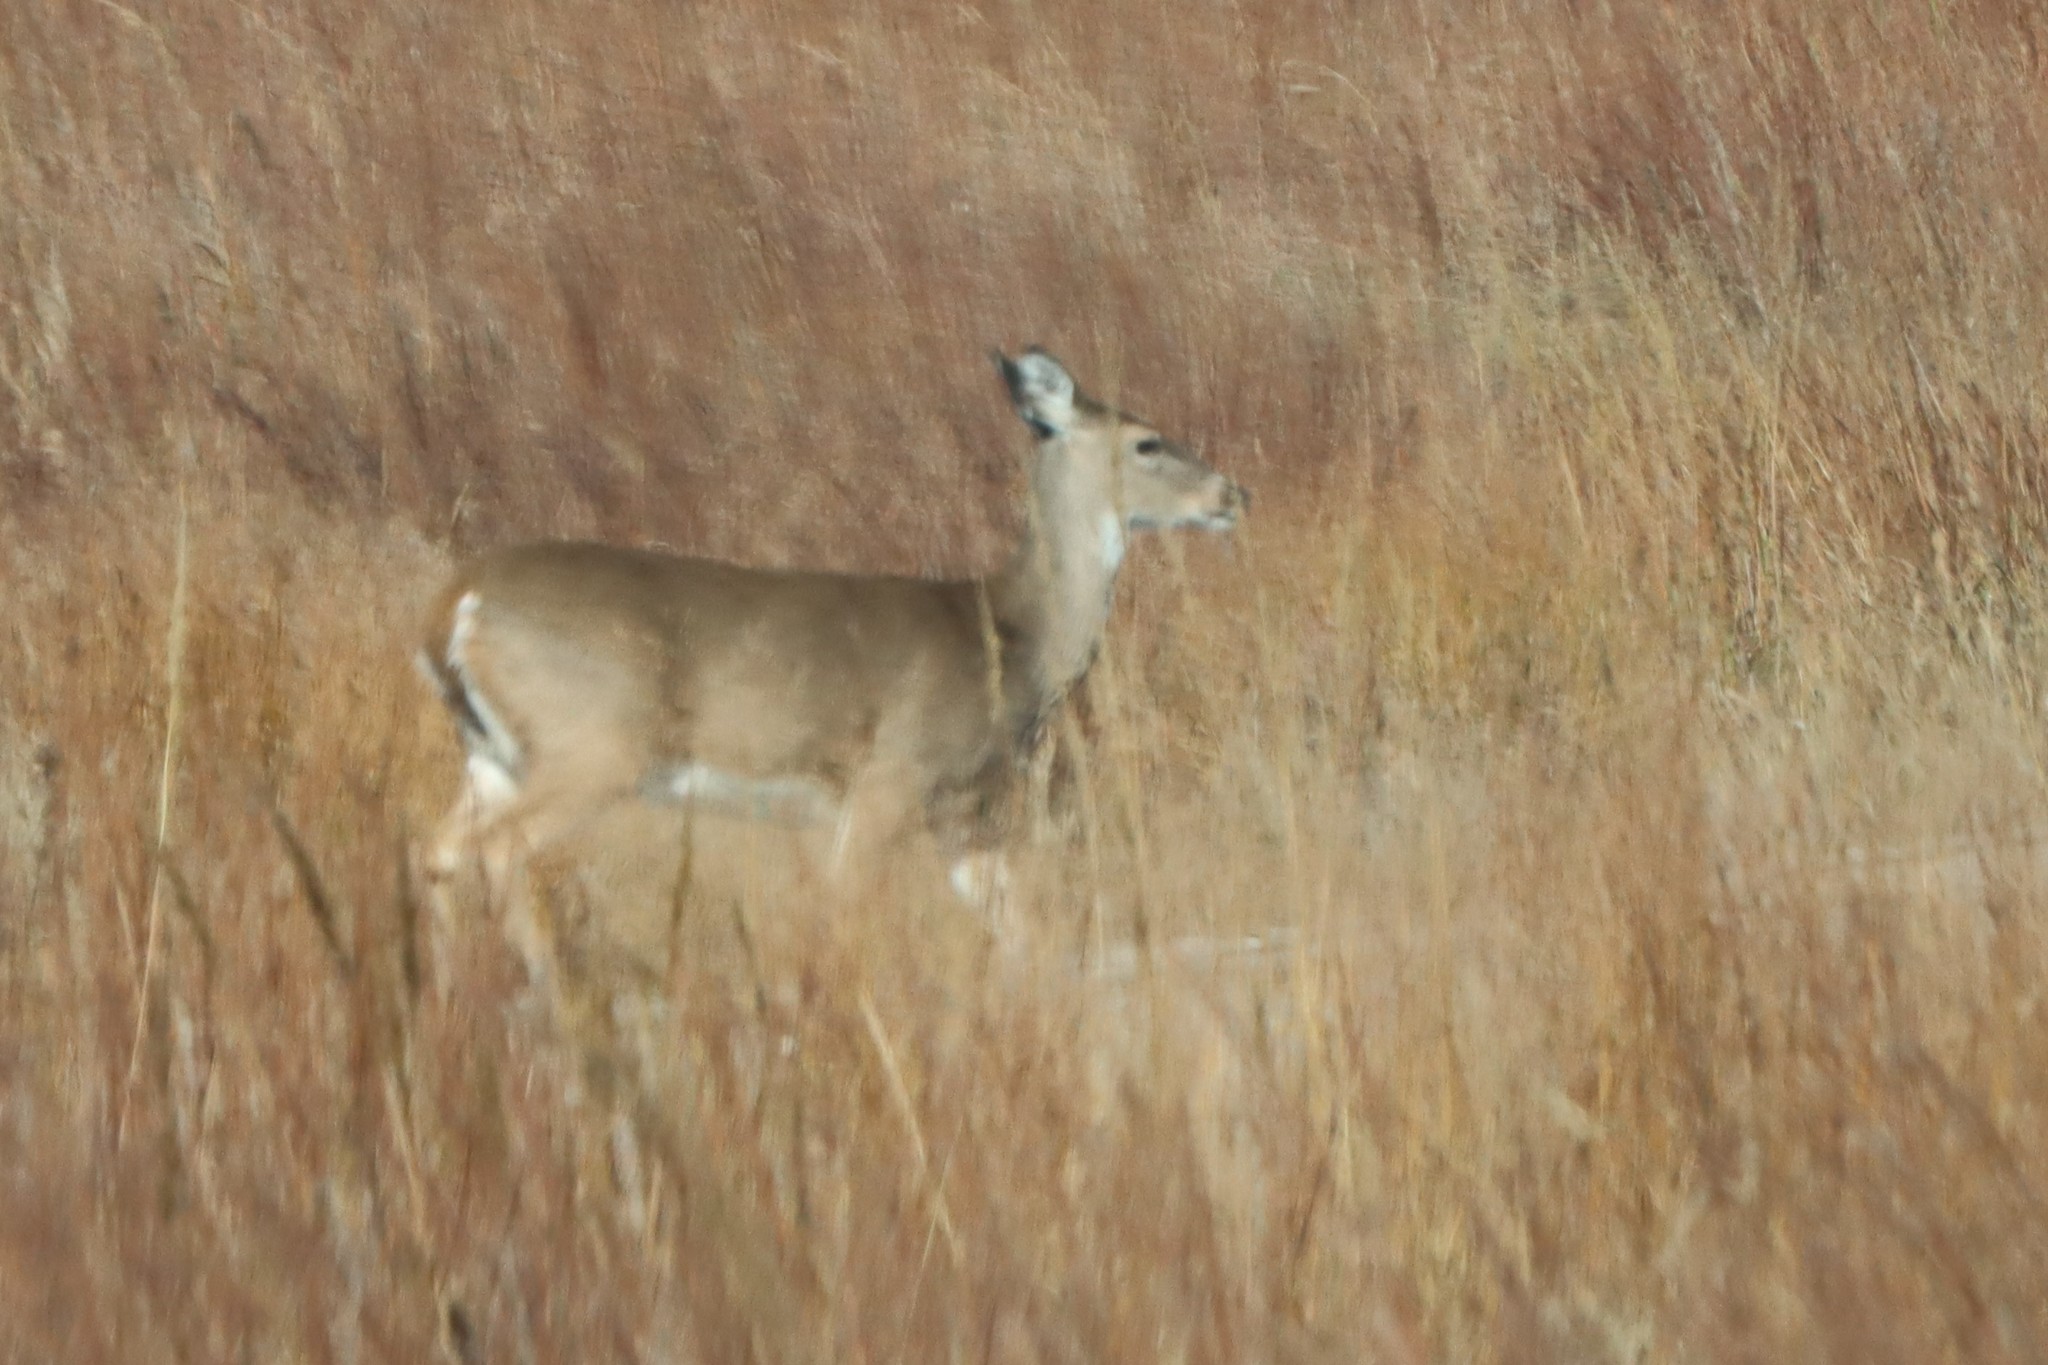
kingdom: Animalia
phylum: Chordata
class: Mammalia
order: Artiodactyla
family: Cervidae
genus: Odocoileus
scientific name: Odocoileus virginianus
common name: White-tailed deer
